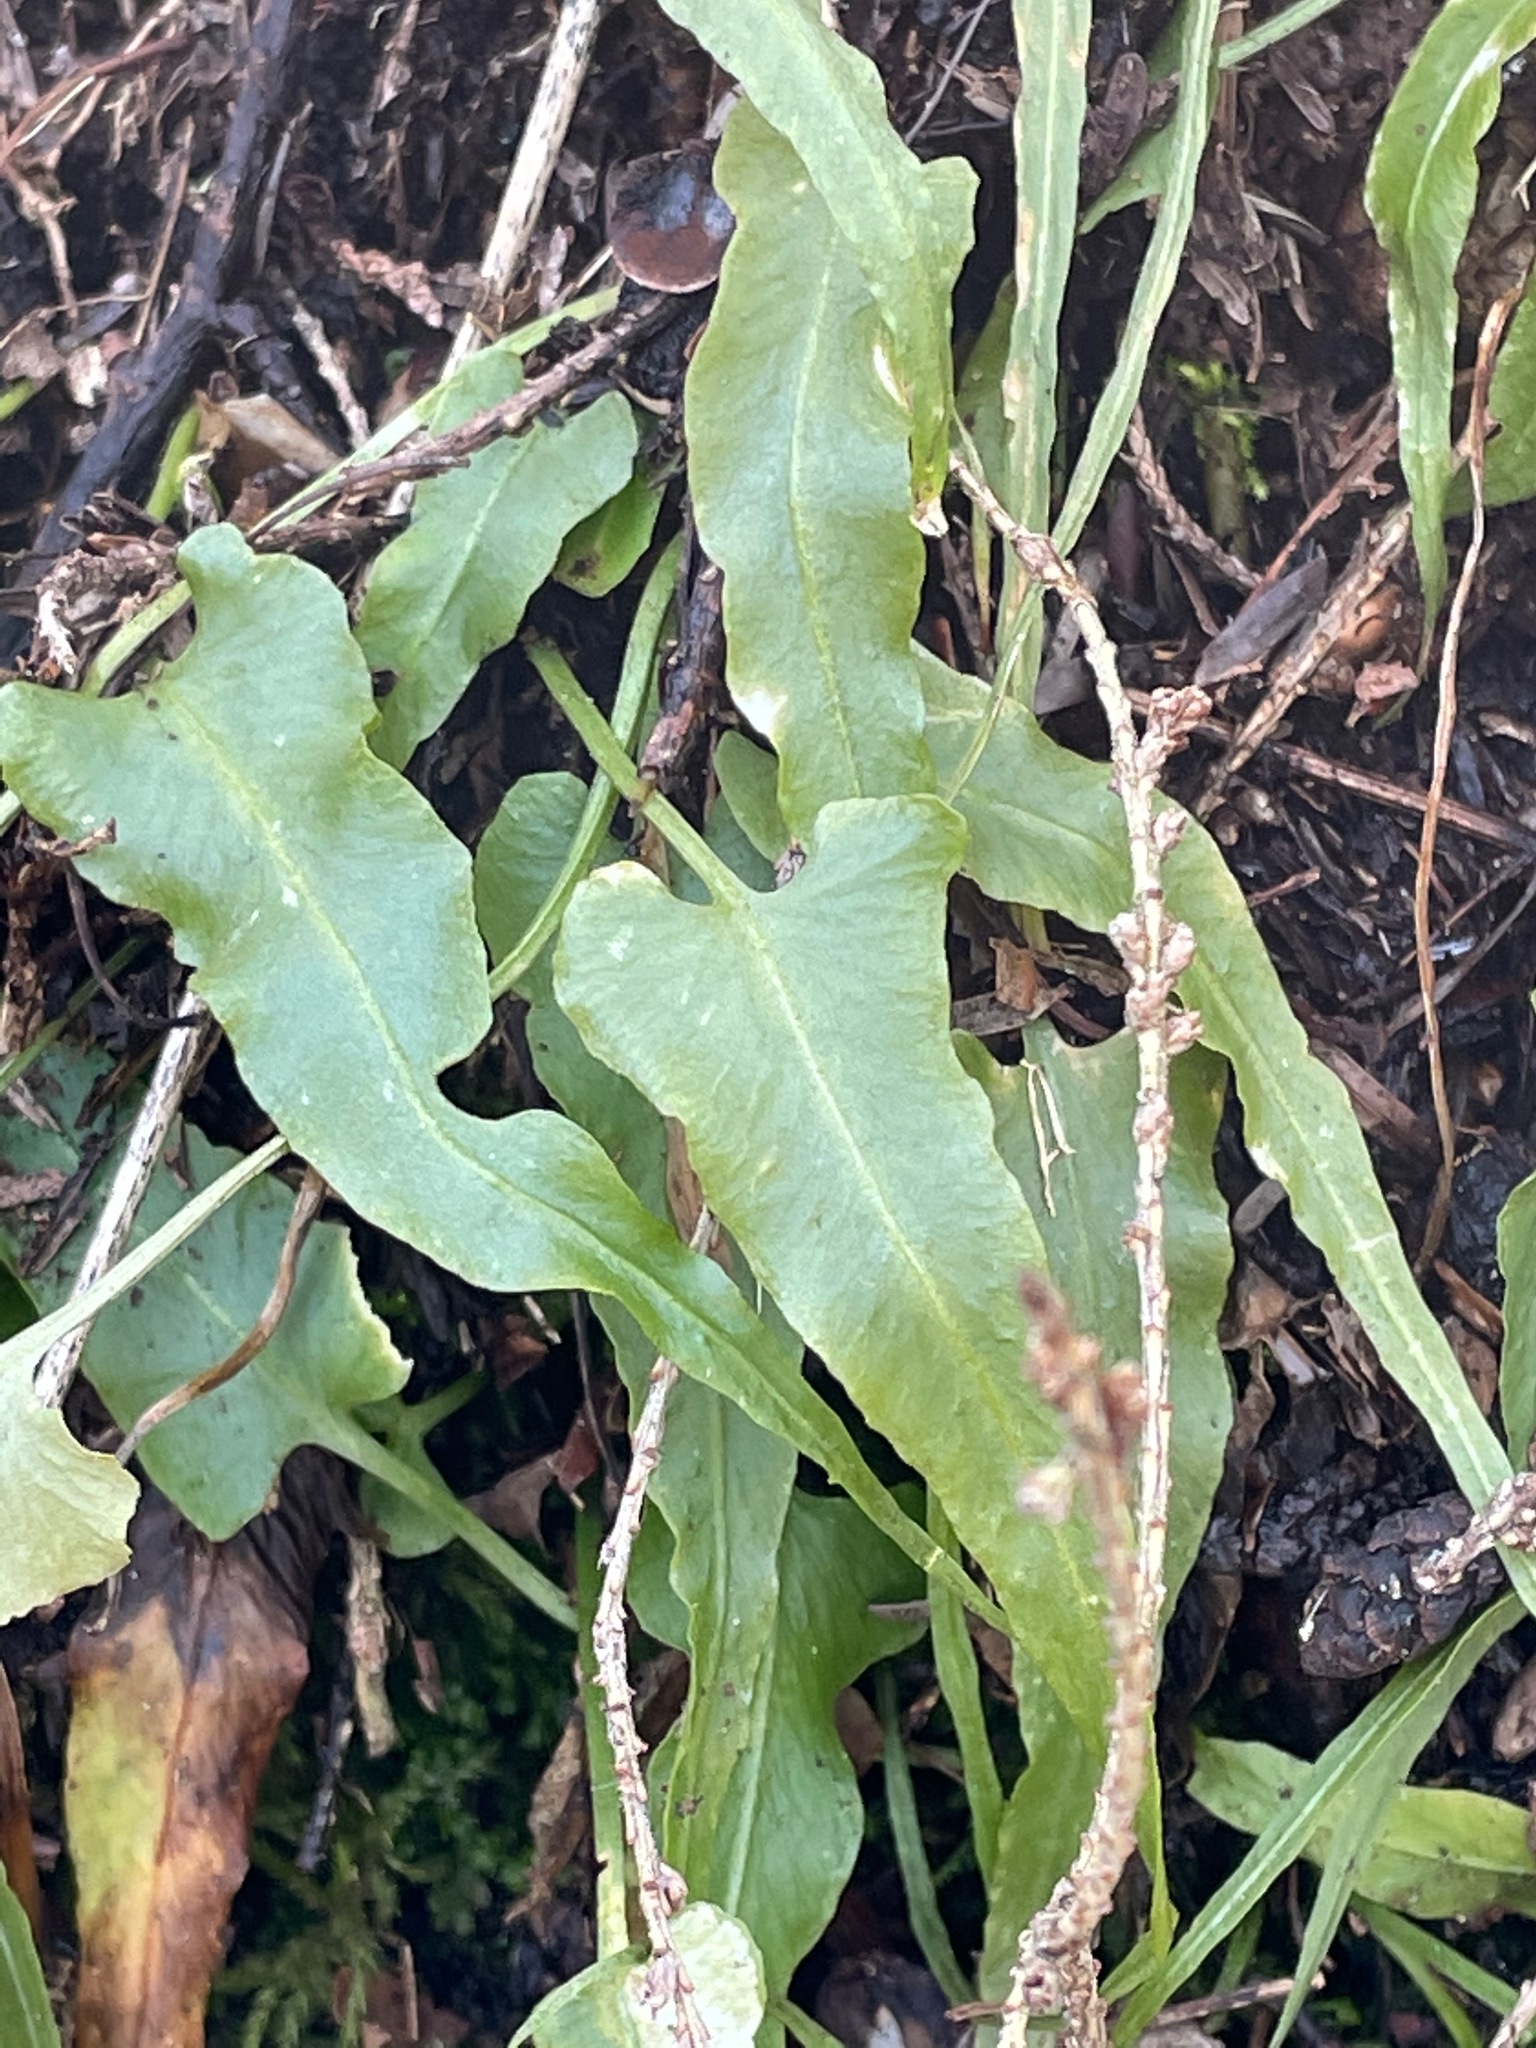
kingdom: Plantae
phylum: Tracheophyta
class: Polypodiopsida
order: Polypodiales
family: Aspleniaceae
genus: Asplenium
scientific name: Asplenium rhizophyllum
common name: Walking fern
